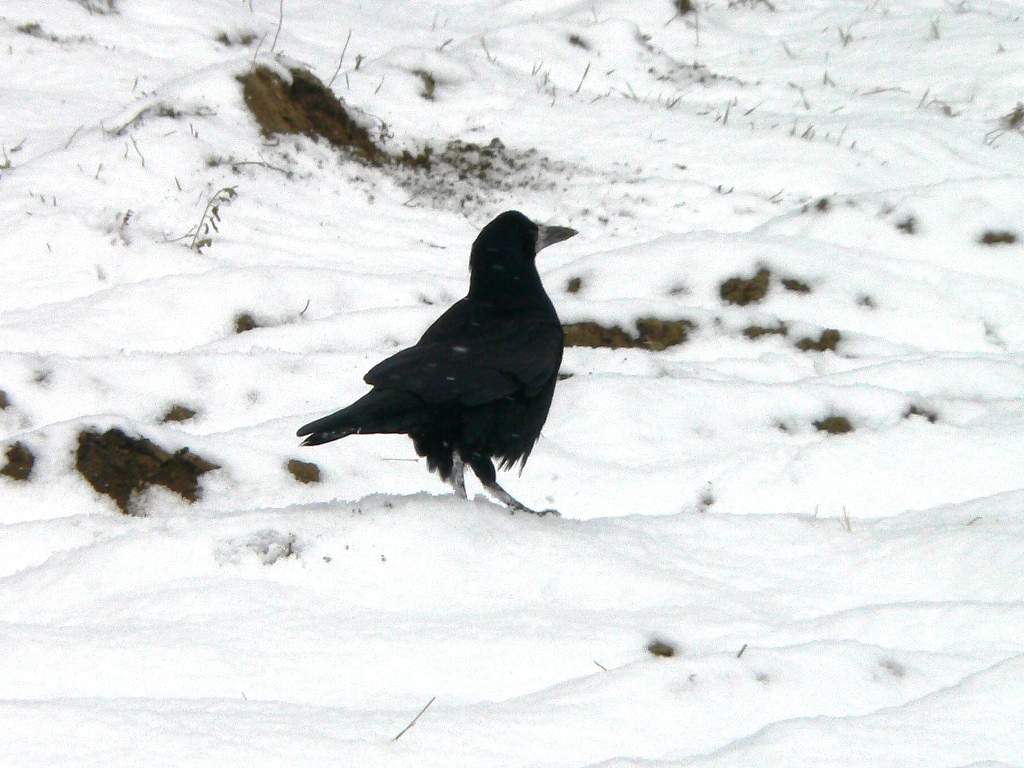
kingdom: Animalia
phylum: Chordata
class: Aves
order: Passeriformes
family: Corvidae
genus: Corvus
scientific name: Corvus frugilegus
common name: Rook
